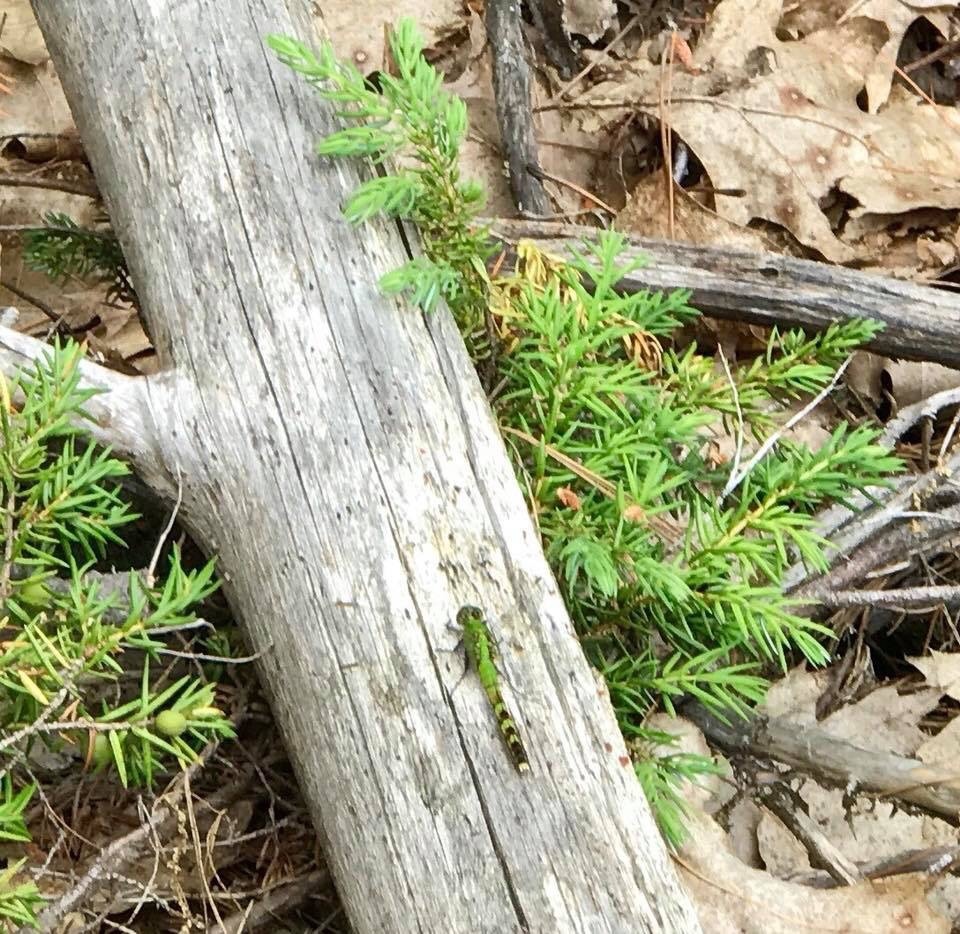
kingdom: Animalia
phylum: Arthropoda
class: Insecta
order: Odonata
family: Libellulidae
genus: Erythemis
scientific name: Erythemis simplicicollis
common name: Eastern pondhawk
